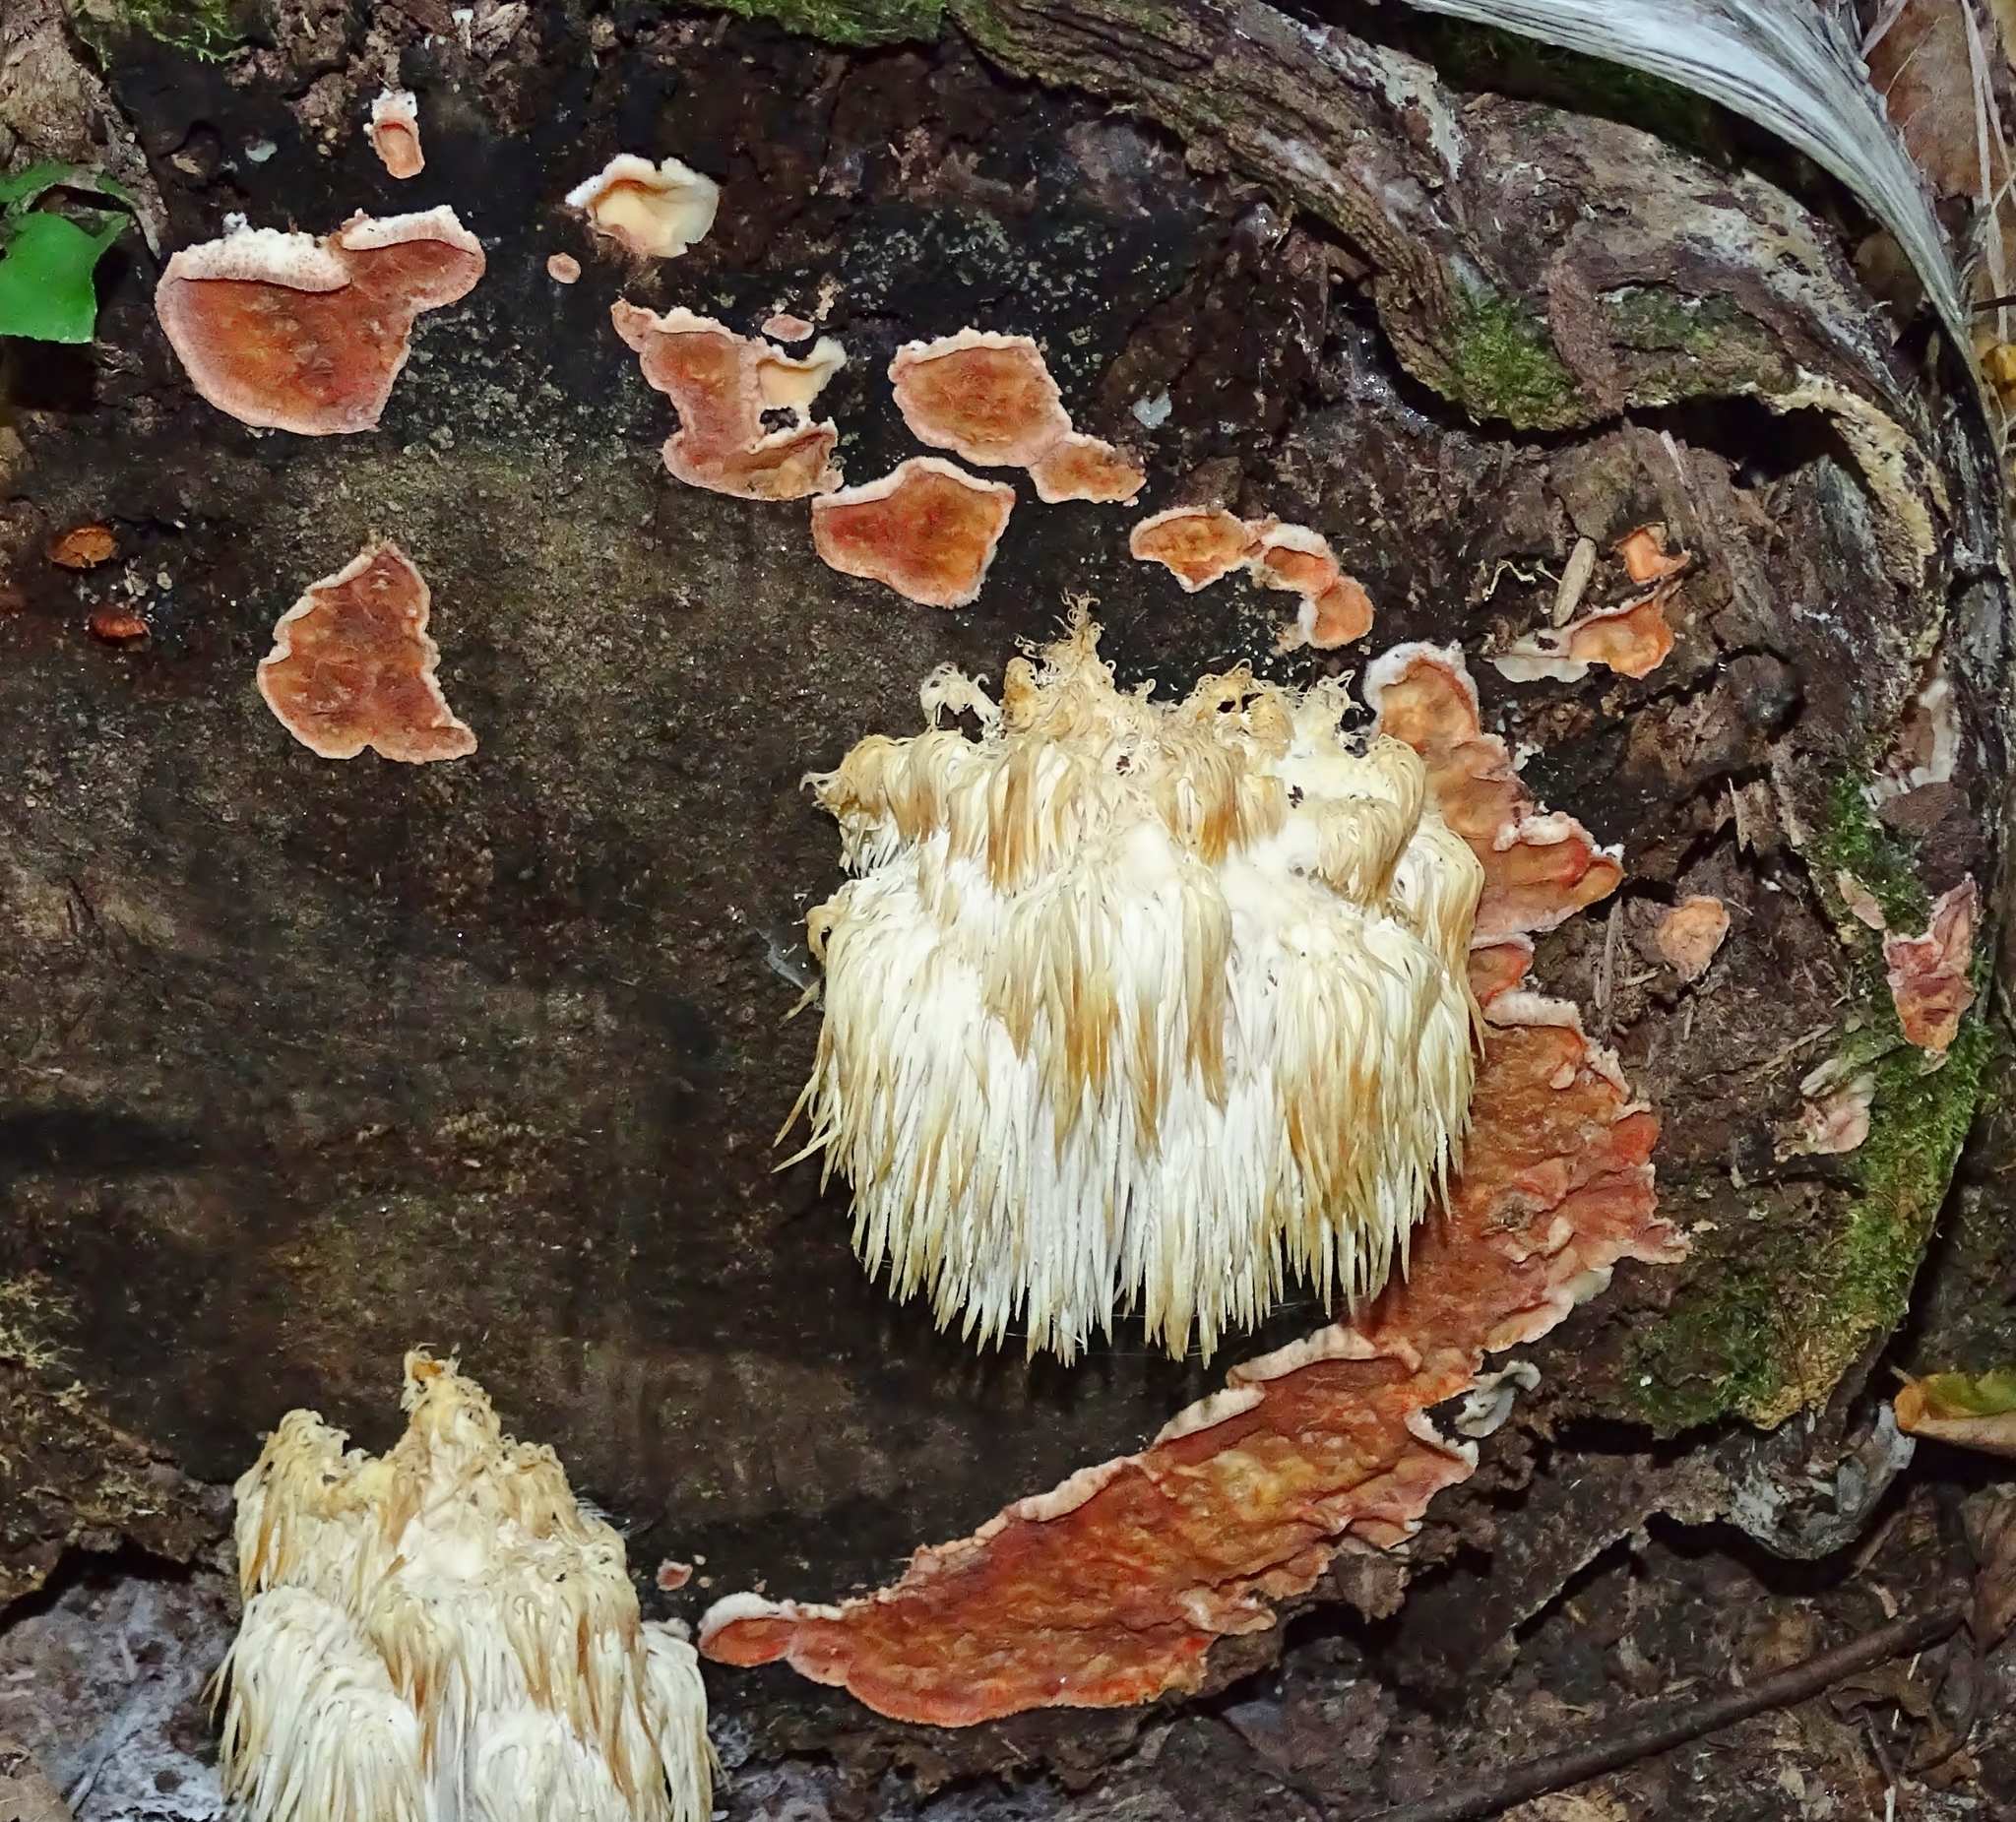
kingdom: Fungi
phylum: Basidiomycota
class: Agaricomycetes
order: Polyporales
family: Meruliaceae
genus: Phlebia
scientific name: Phlebia tremellosa
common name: Jelly rot
